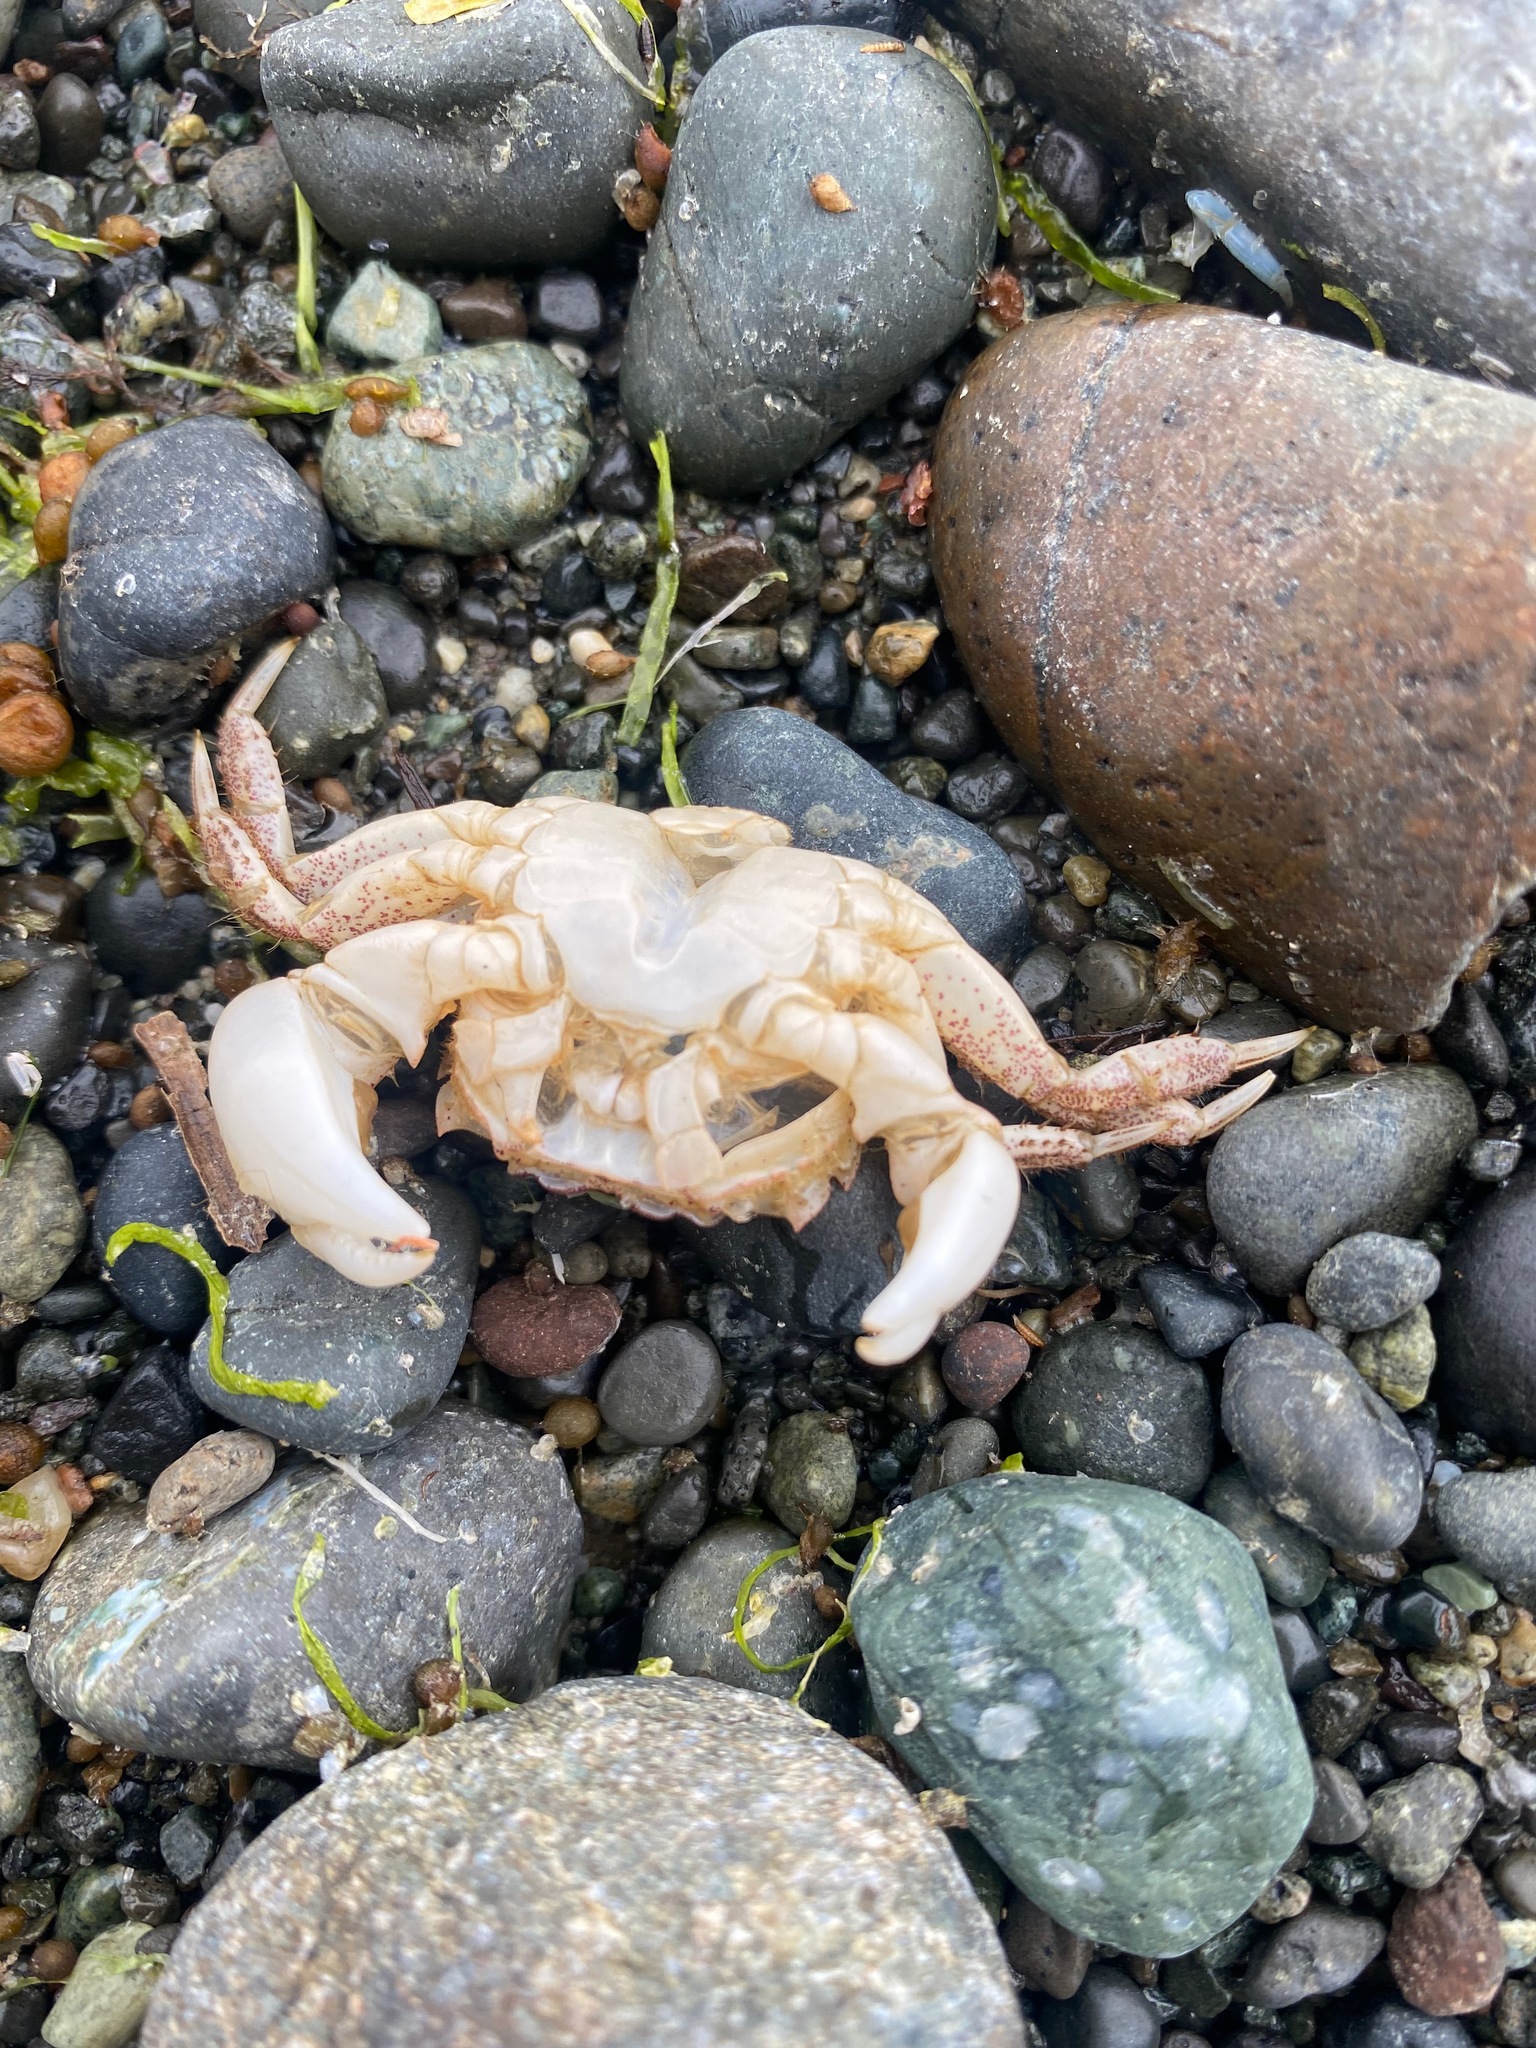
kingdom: Animalia
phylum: Arthropoda
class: Malacostraca
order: Decapoda
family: Varunidae
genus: Hemigrapsus
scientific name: Hemigrapsus oregonensis
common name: Yellow shore crab
